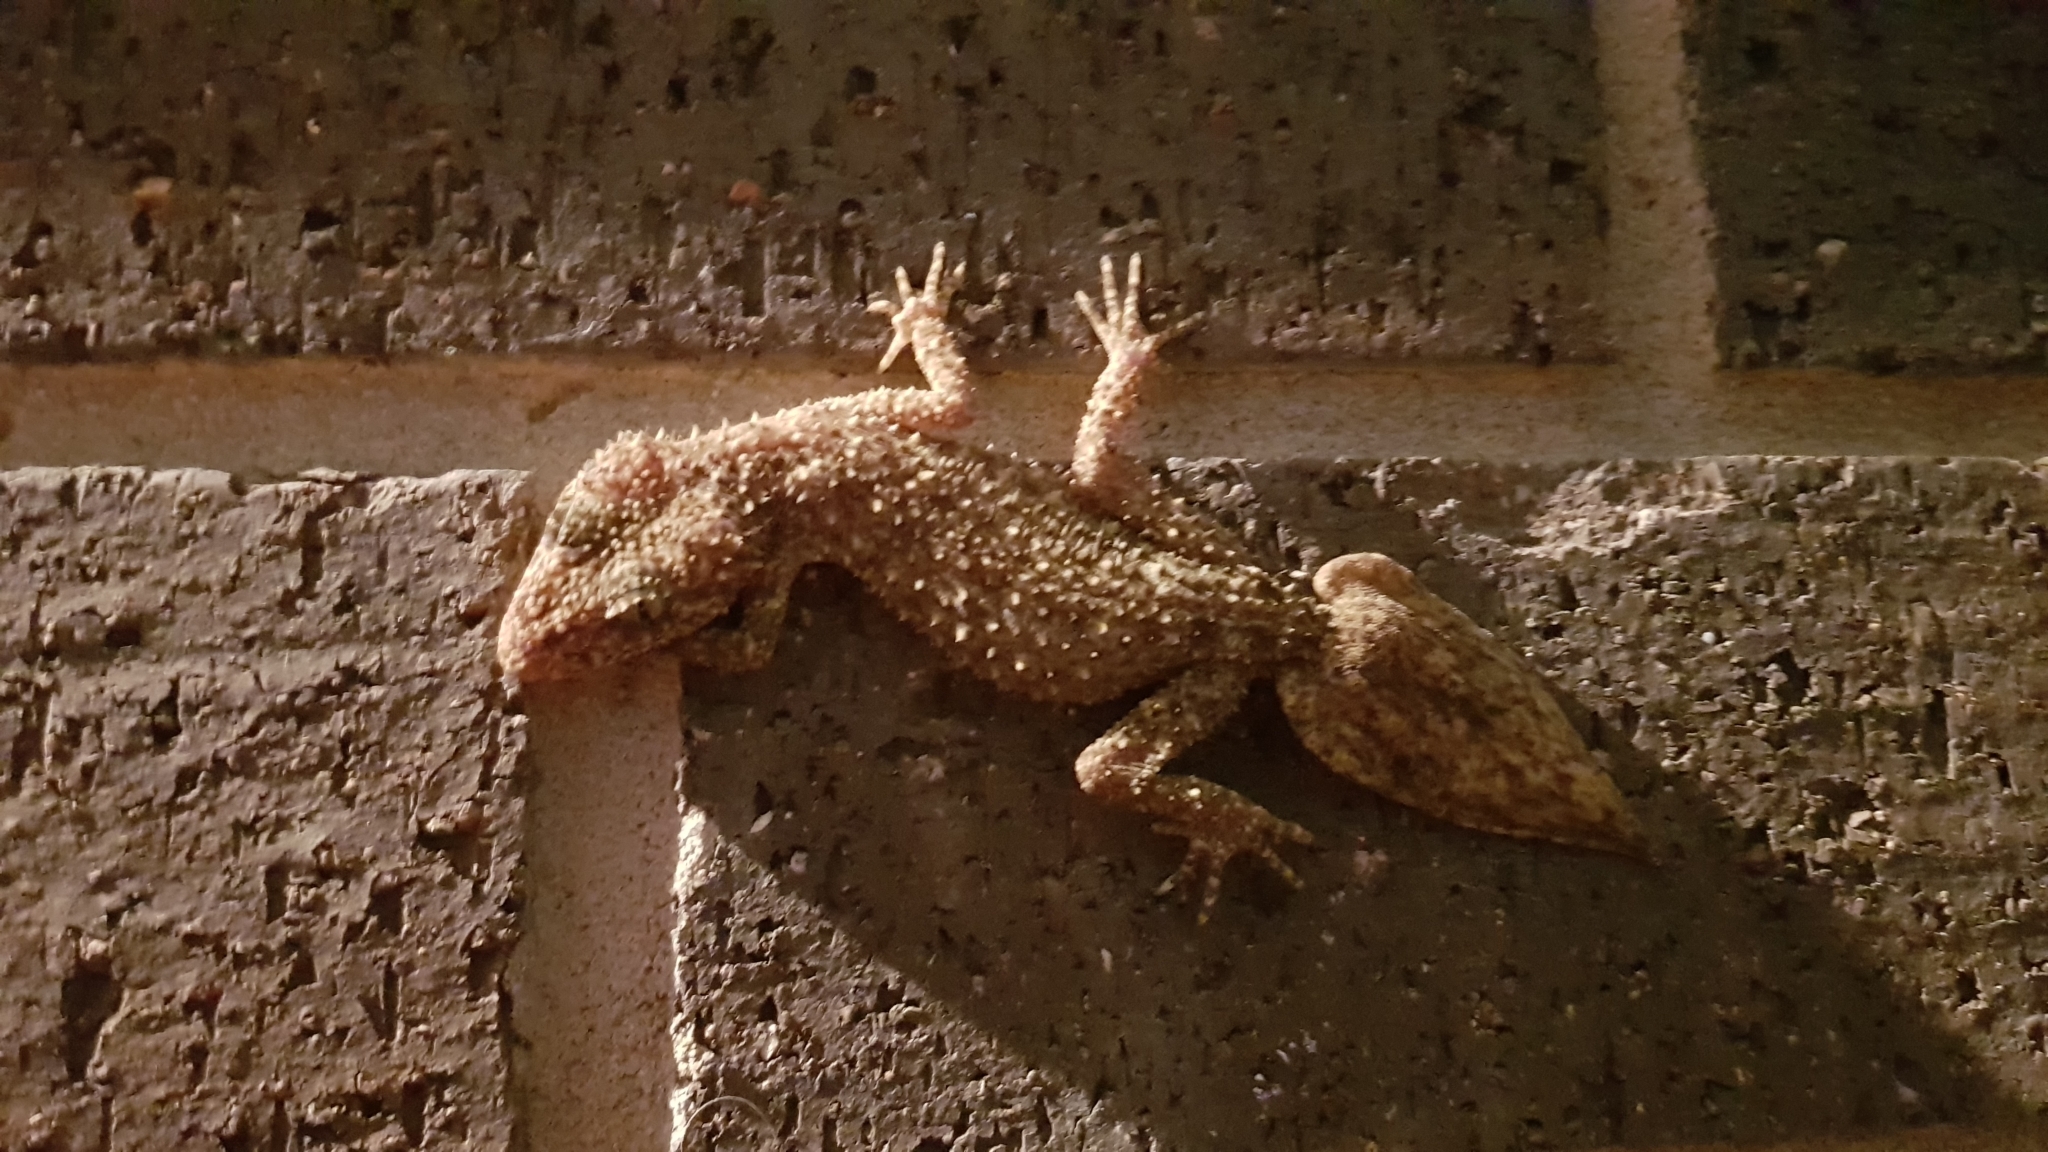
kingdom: Animalia
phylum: Chordata
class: Squamata
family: Carphodactylidae
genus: Phyllurus
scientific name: Phyllurus platurus
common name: Broad-tailed gecko
